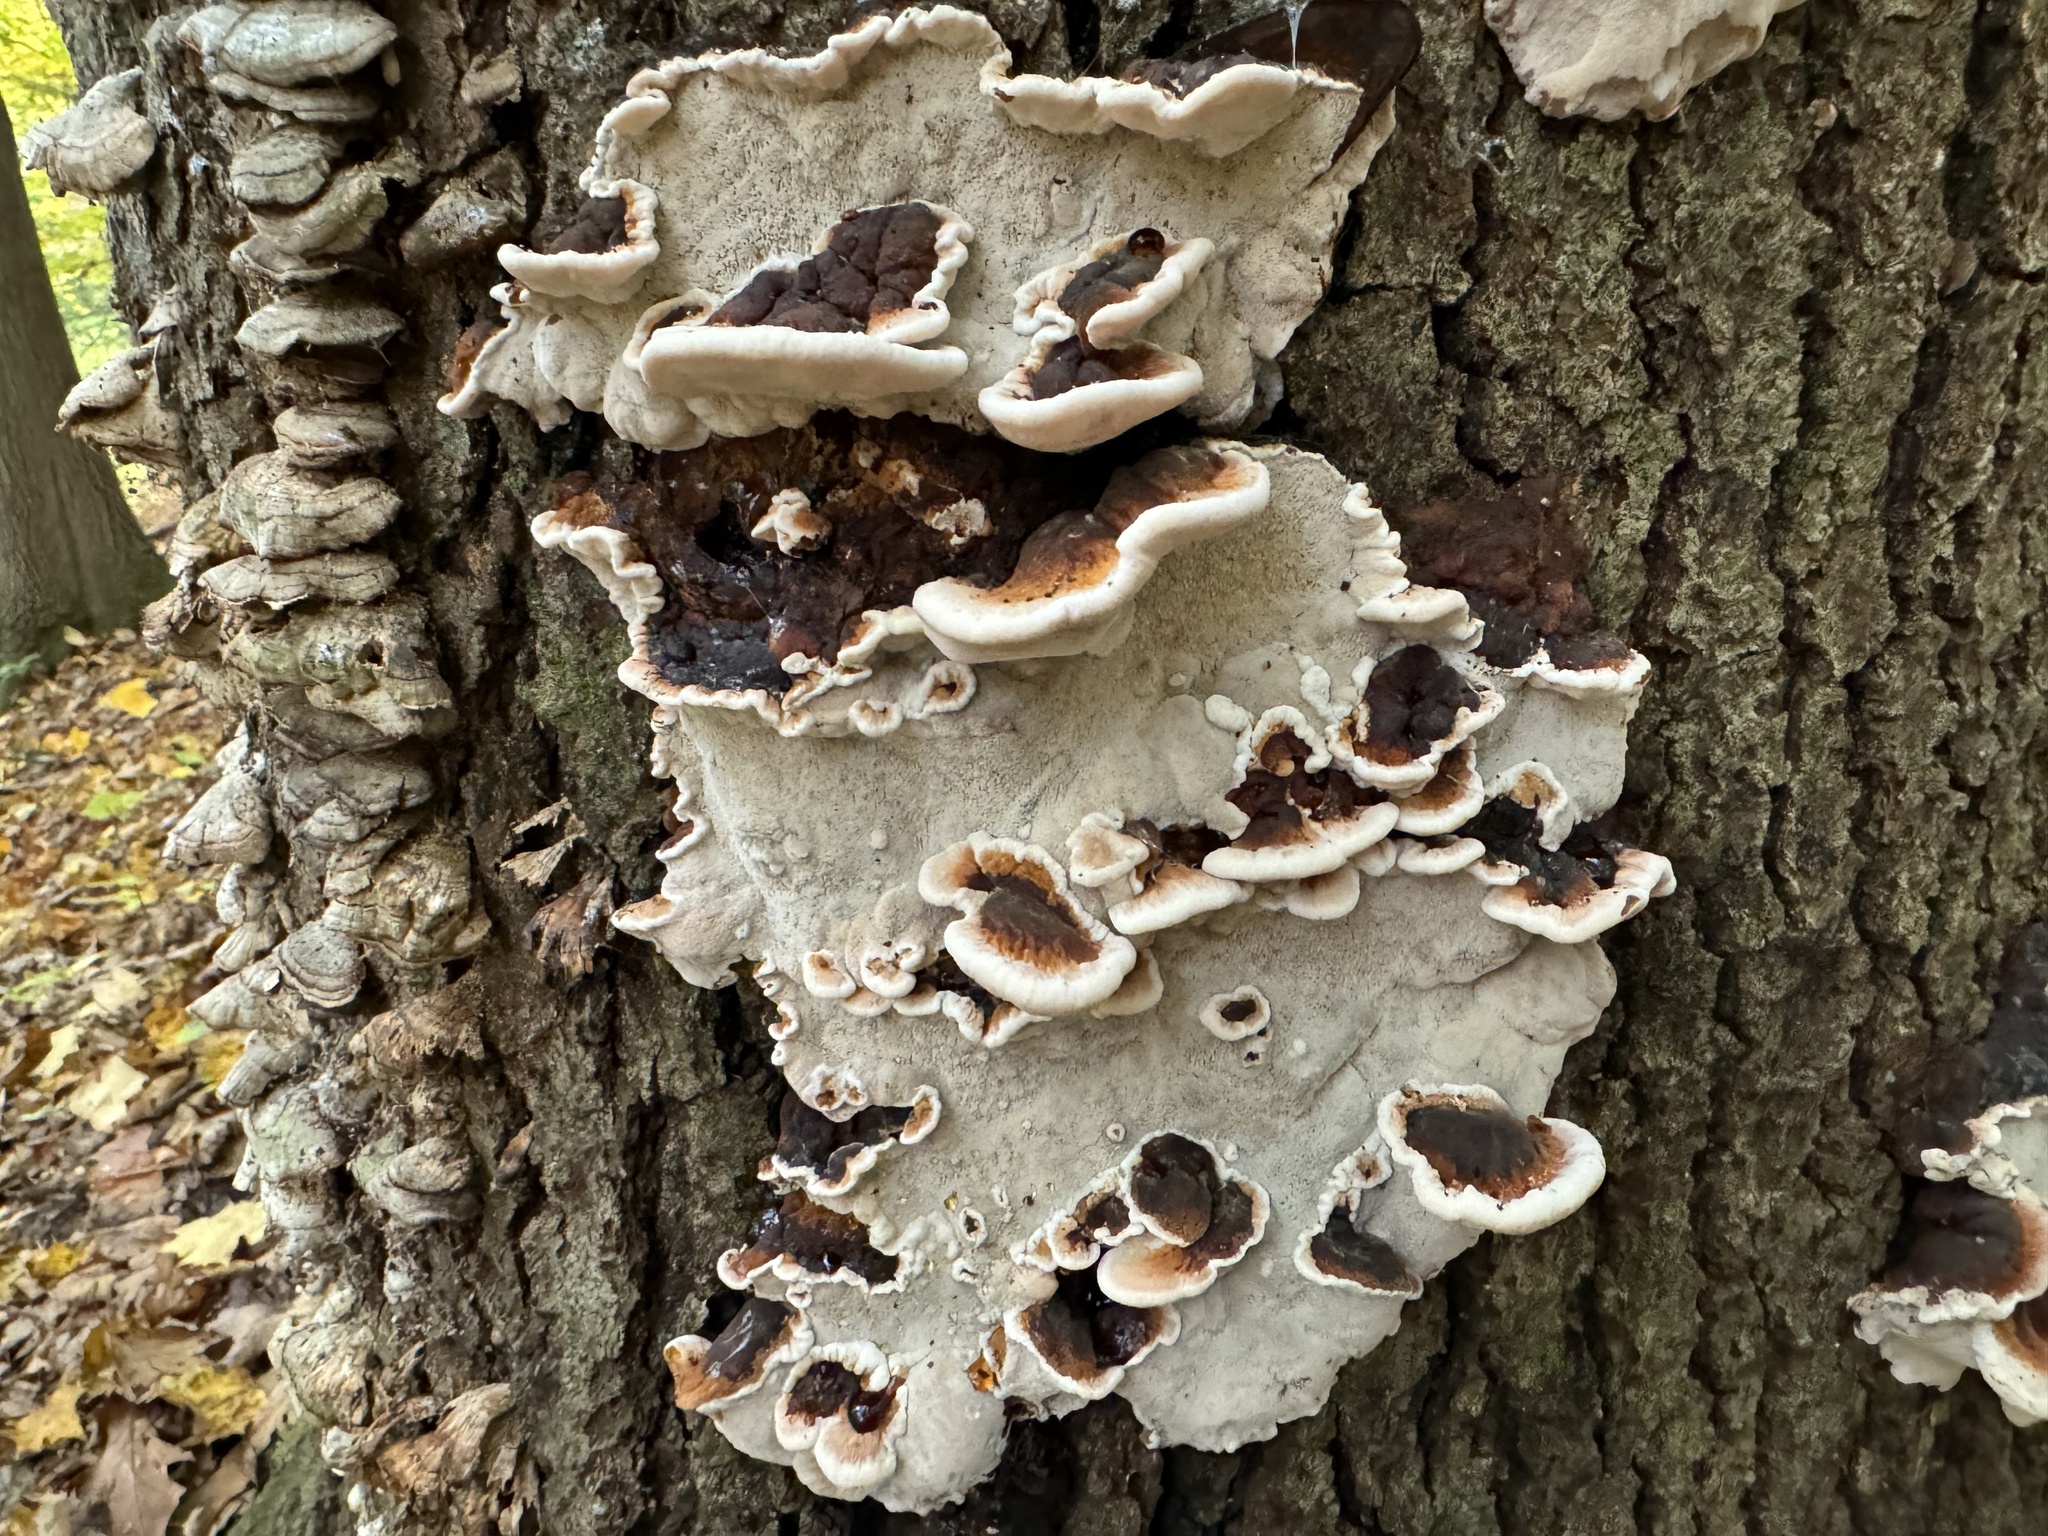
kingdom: Fungi
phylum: Basidiomycota
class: Agaricomycetes
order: Polyporales
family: Ischnodermataceae
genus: Ischnoderma
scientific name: Ischnoderma resinosum
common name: Resinous polypore
